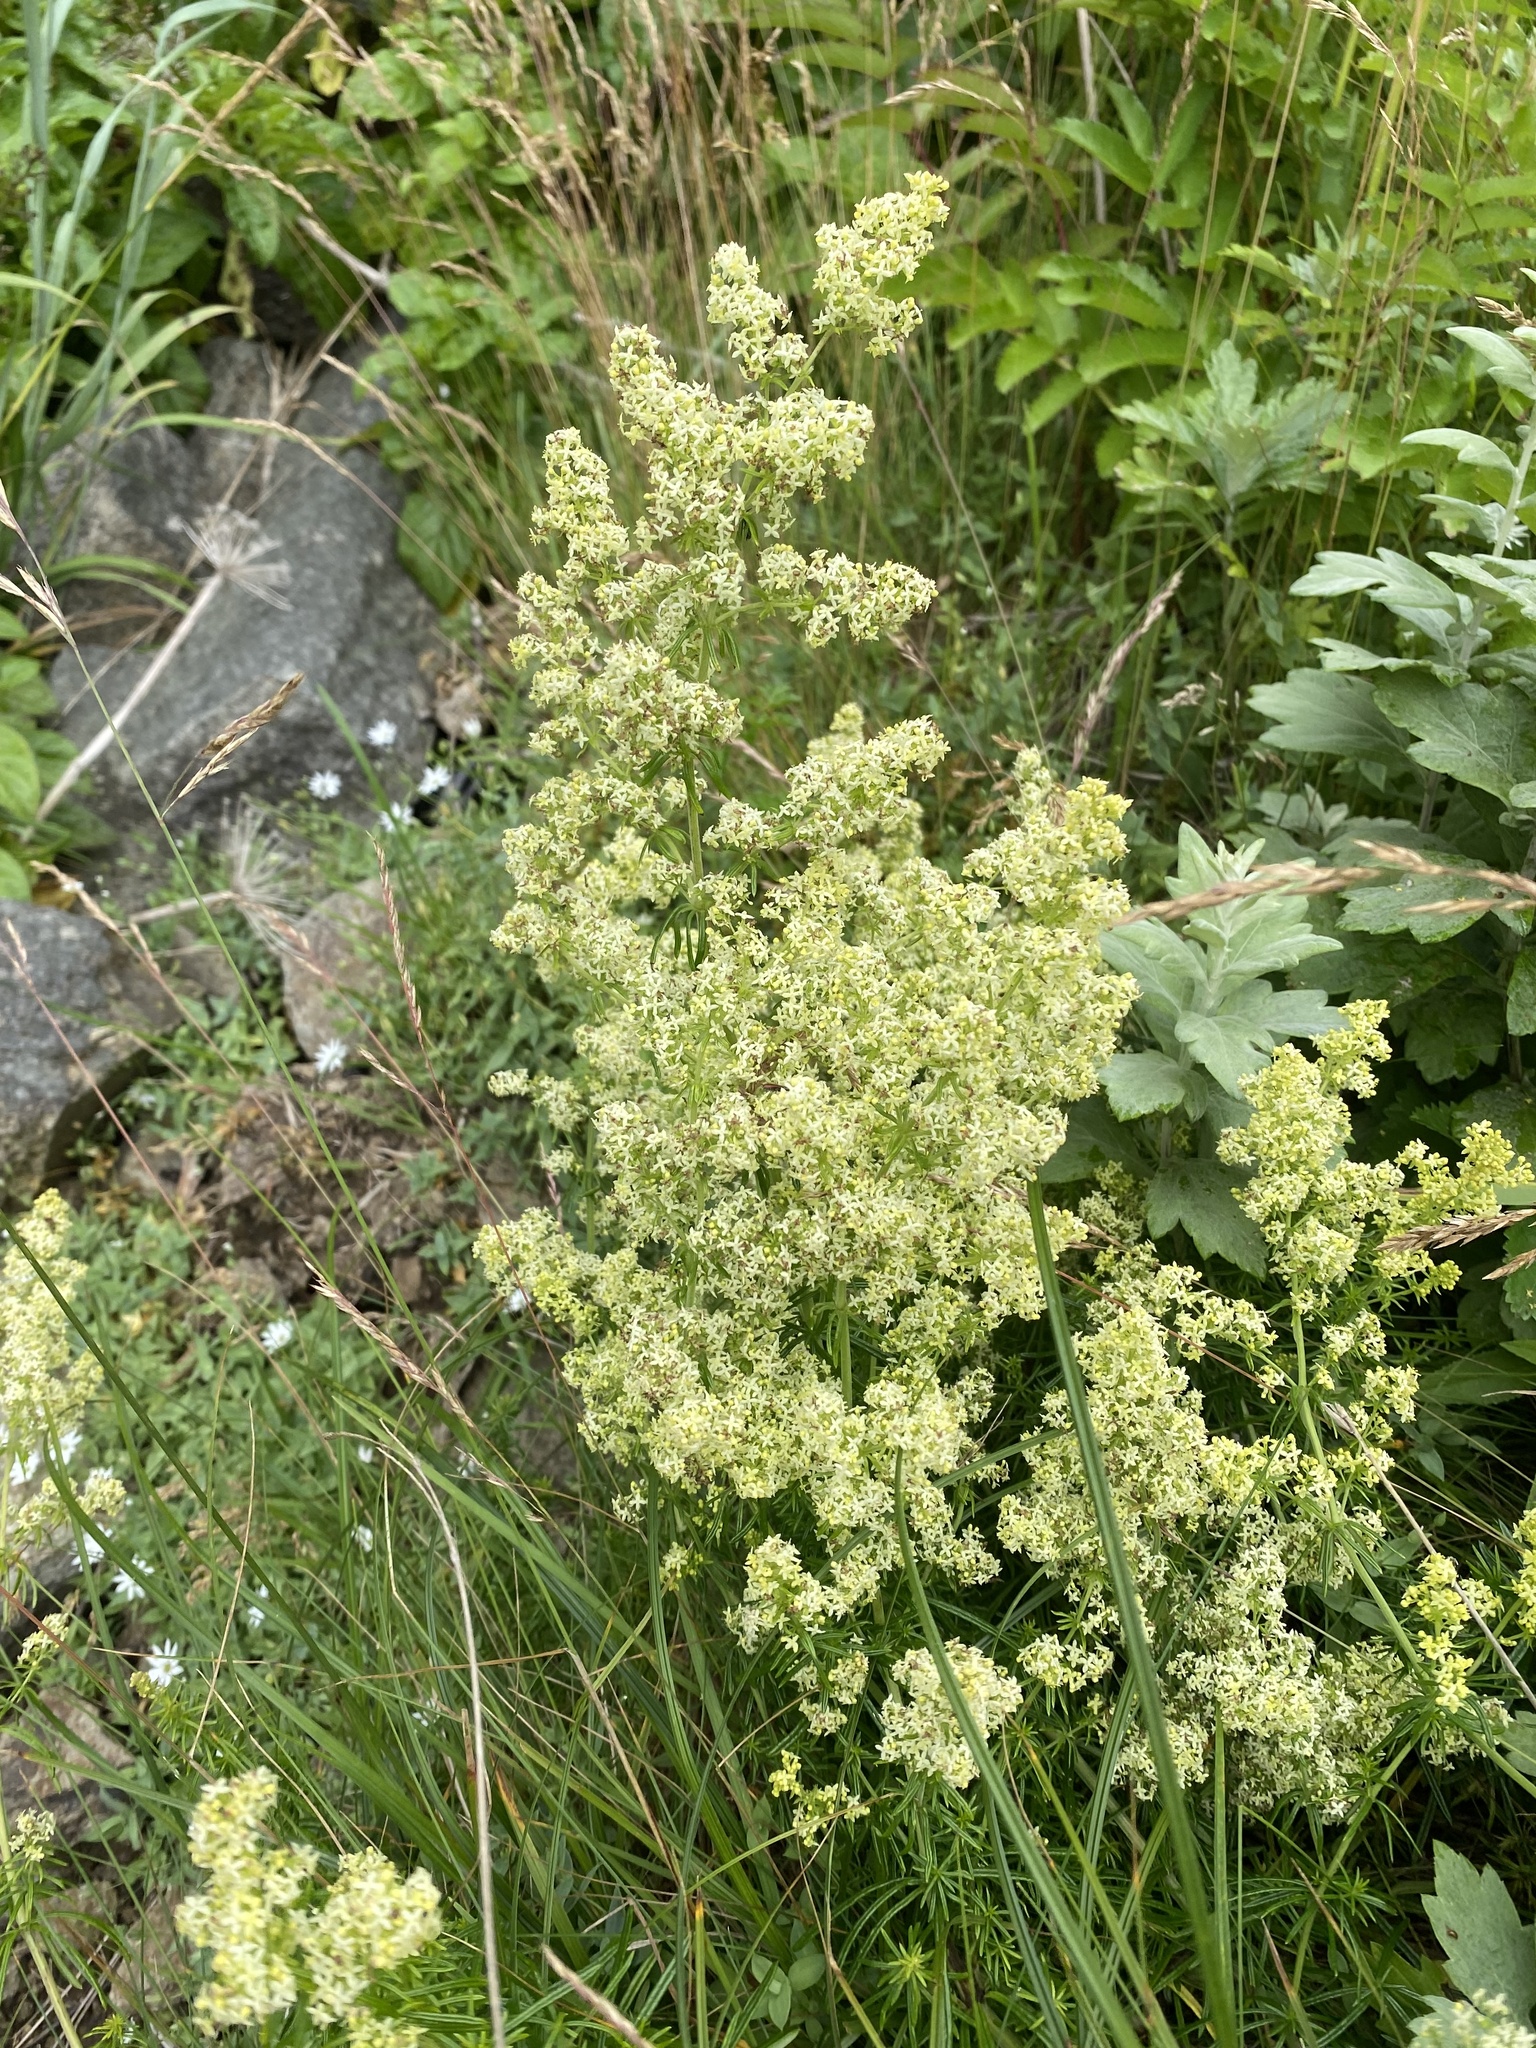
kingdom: Plantae
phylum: Tracheophyta
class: Magnoliopsida
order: Gentianales
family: Rubiaceae
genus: Galium
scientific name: Galium verum
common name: Lady's bedstraw
